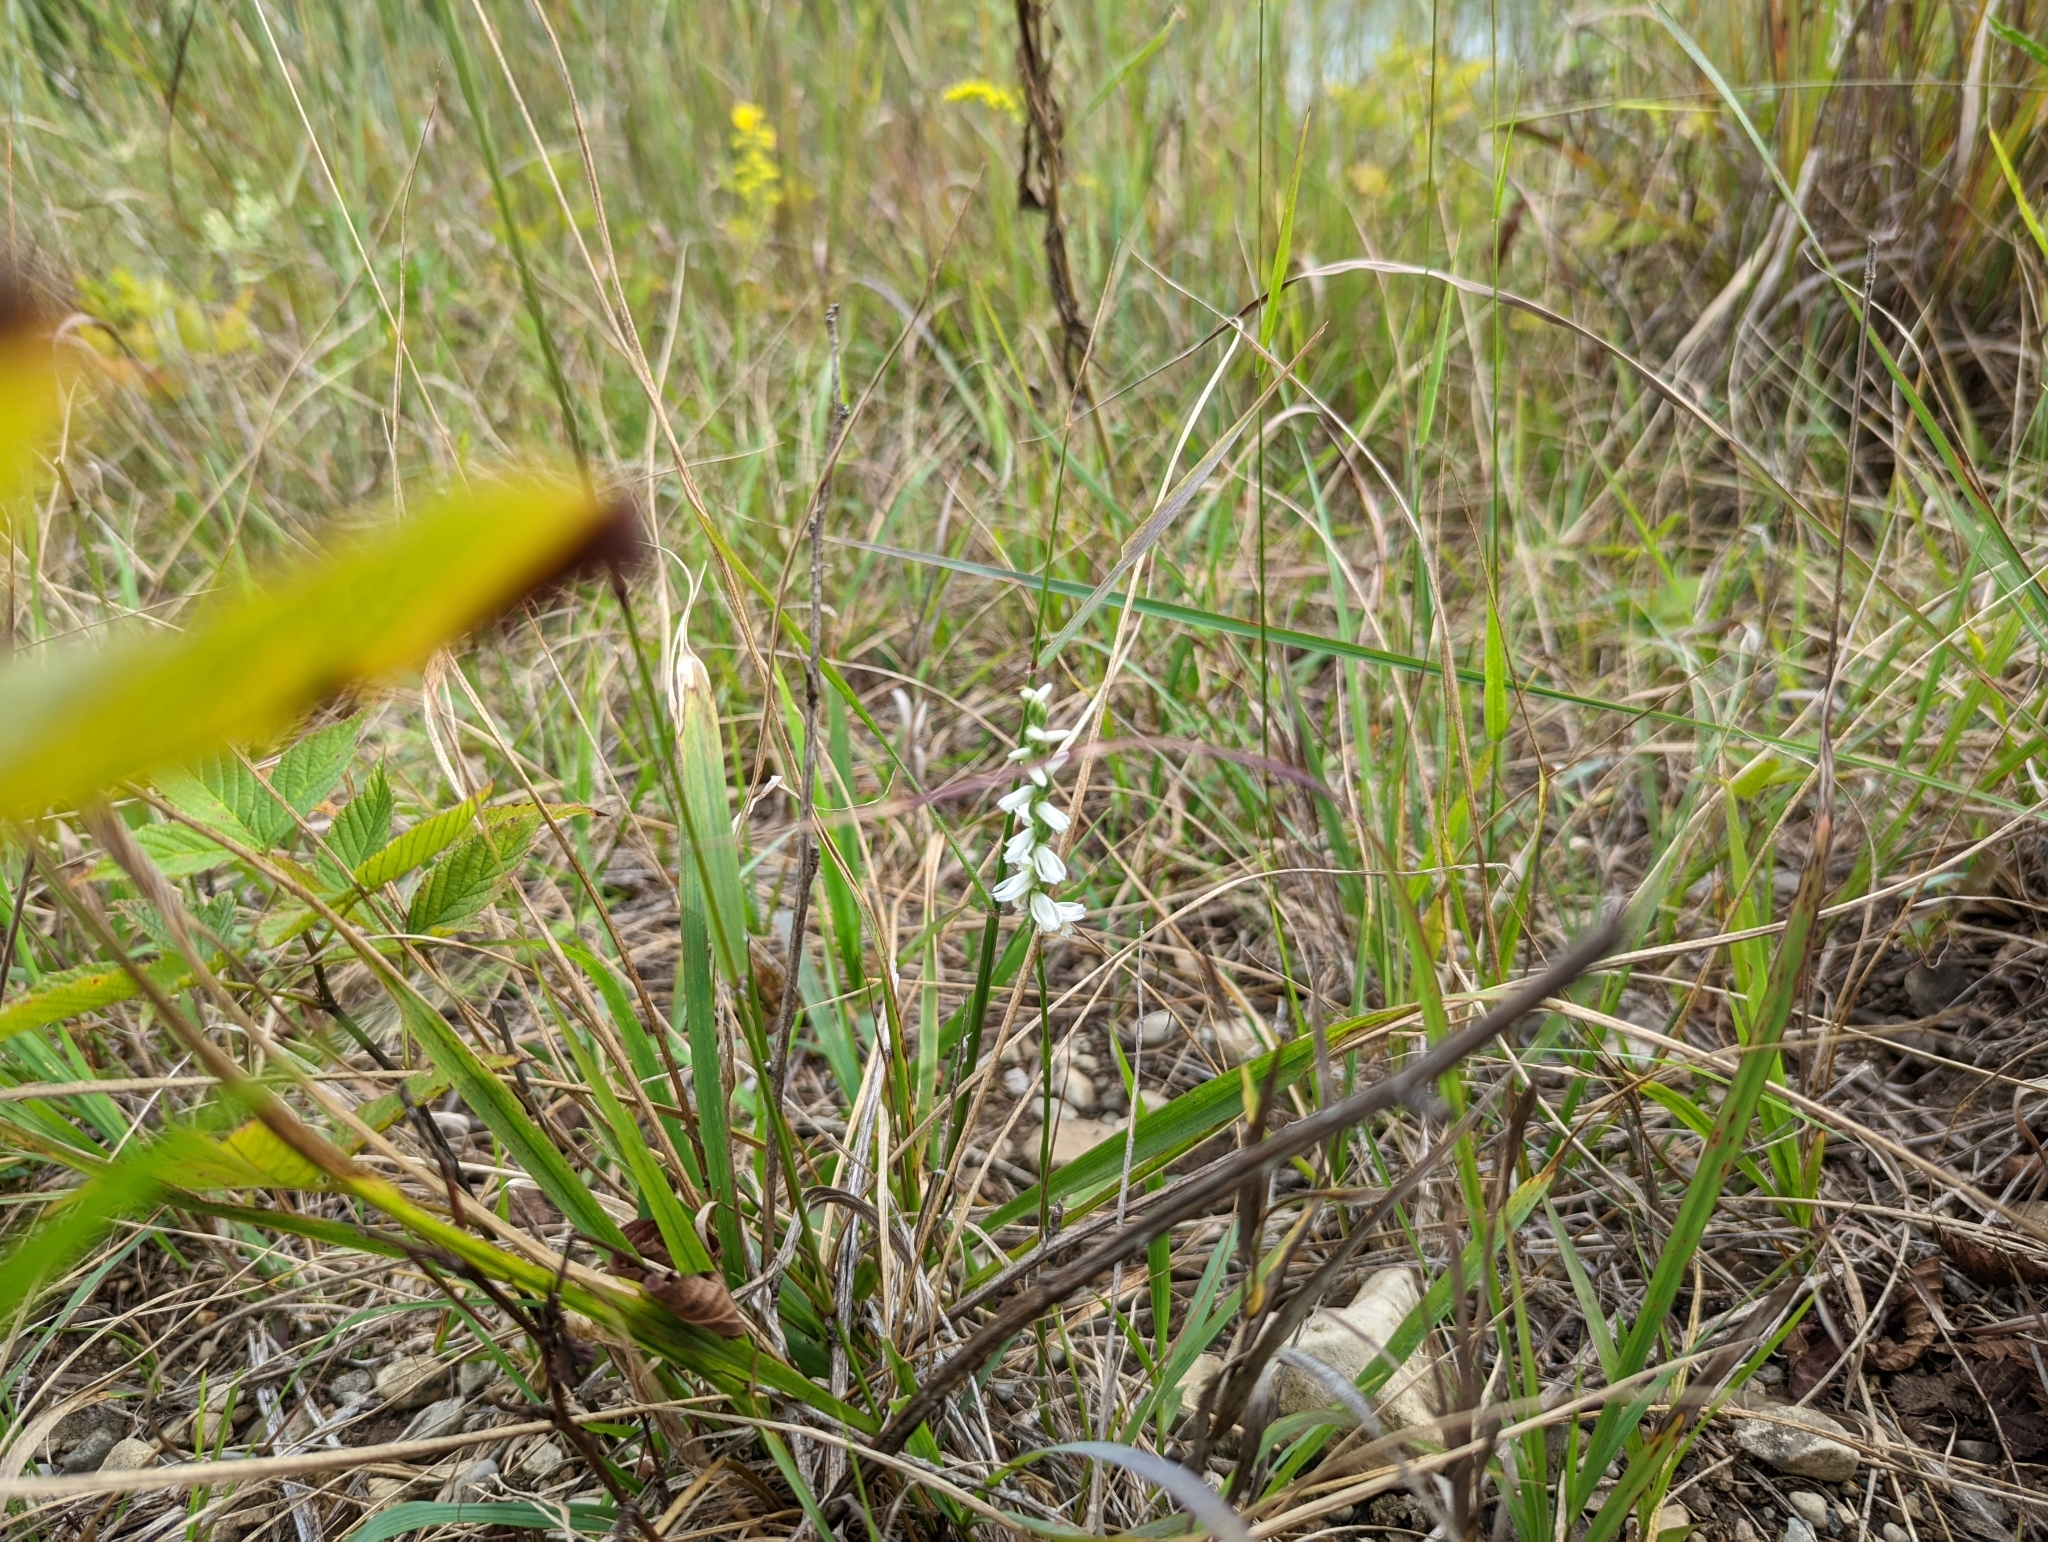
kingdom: Plantae
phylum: Tracheophyta
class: Liliopsida
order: Asparagales
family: Orchidaceae
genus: Spiranthes
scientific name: Spiranthes magnicamporum
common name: Great plains ladies'-tresses
